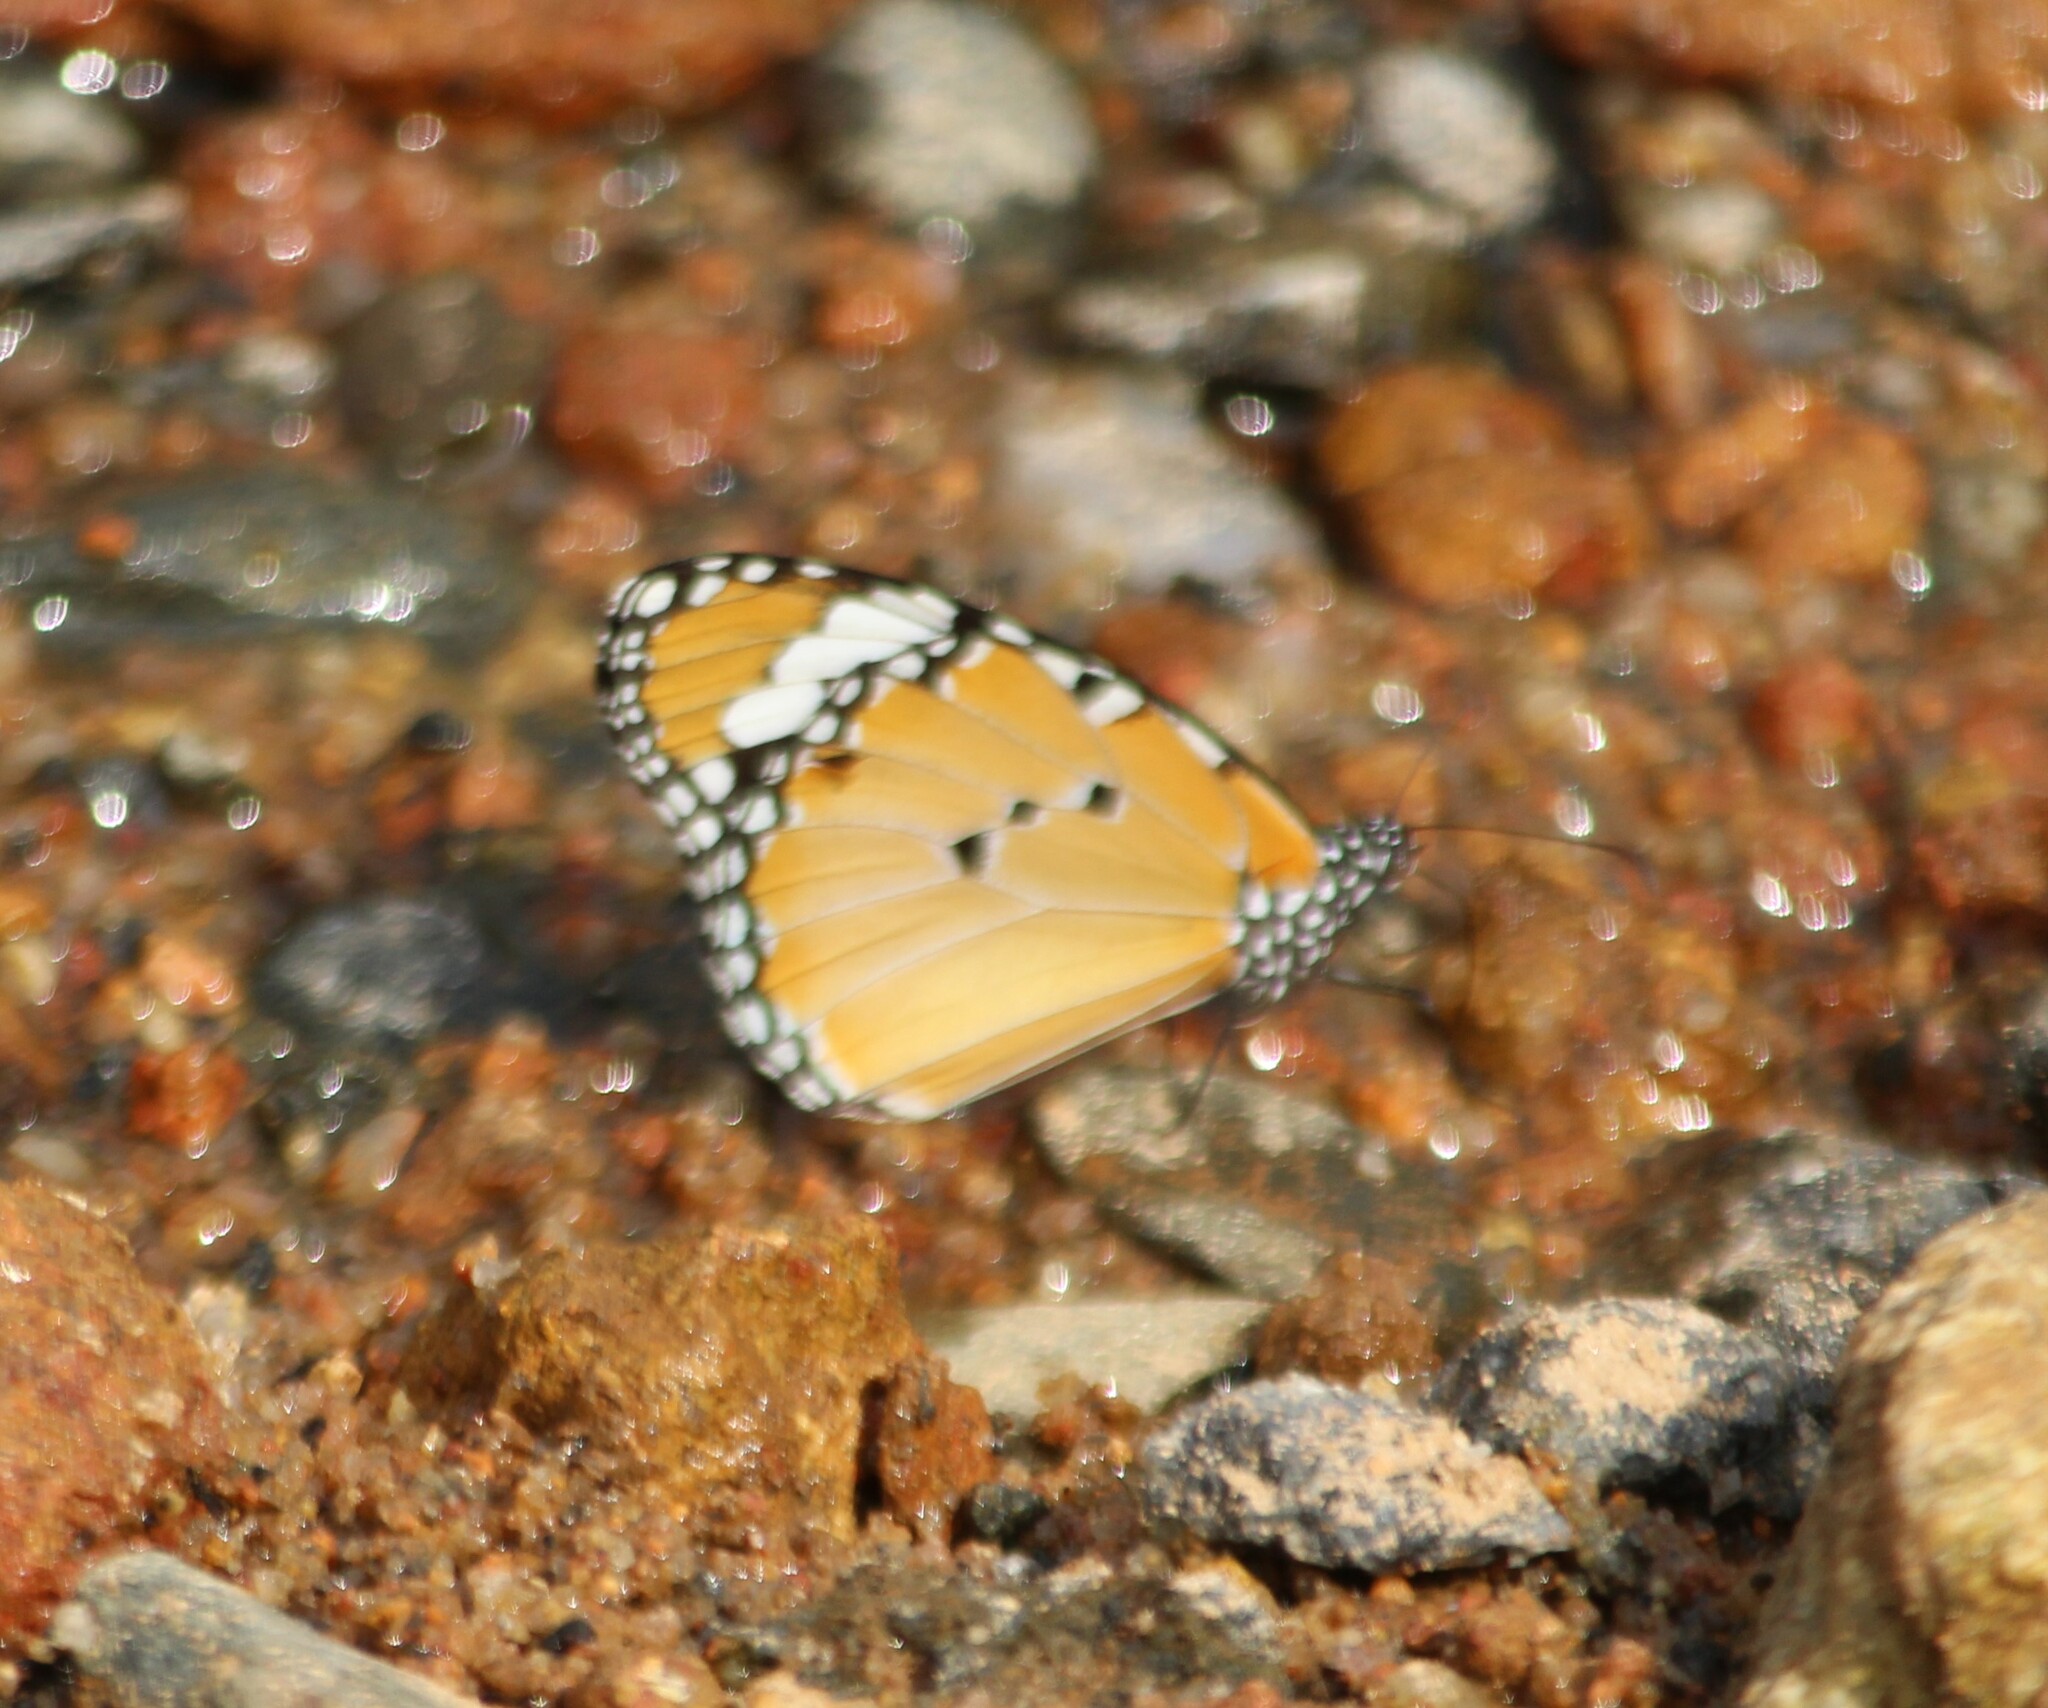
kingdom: Animalia
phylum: Arthropoda
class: Insecta
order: Lepidoptera
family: Nymphalidae
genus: Danaus
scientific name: Danaus chrysippus
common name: Plain tiger
